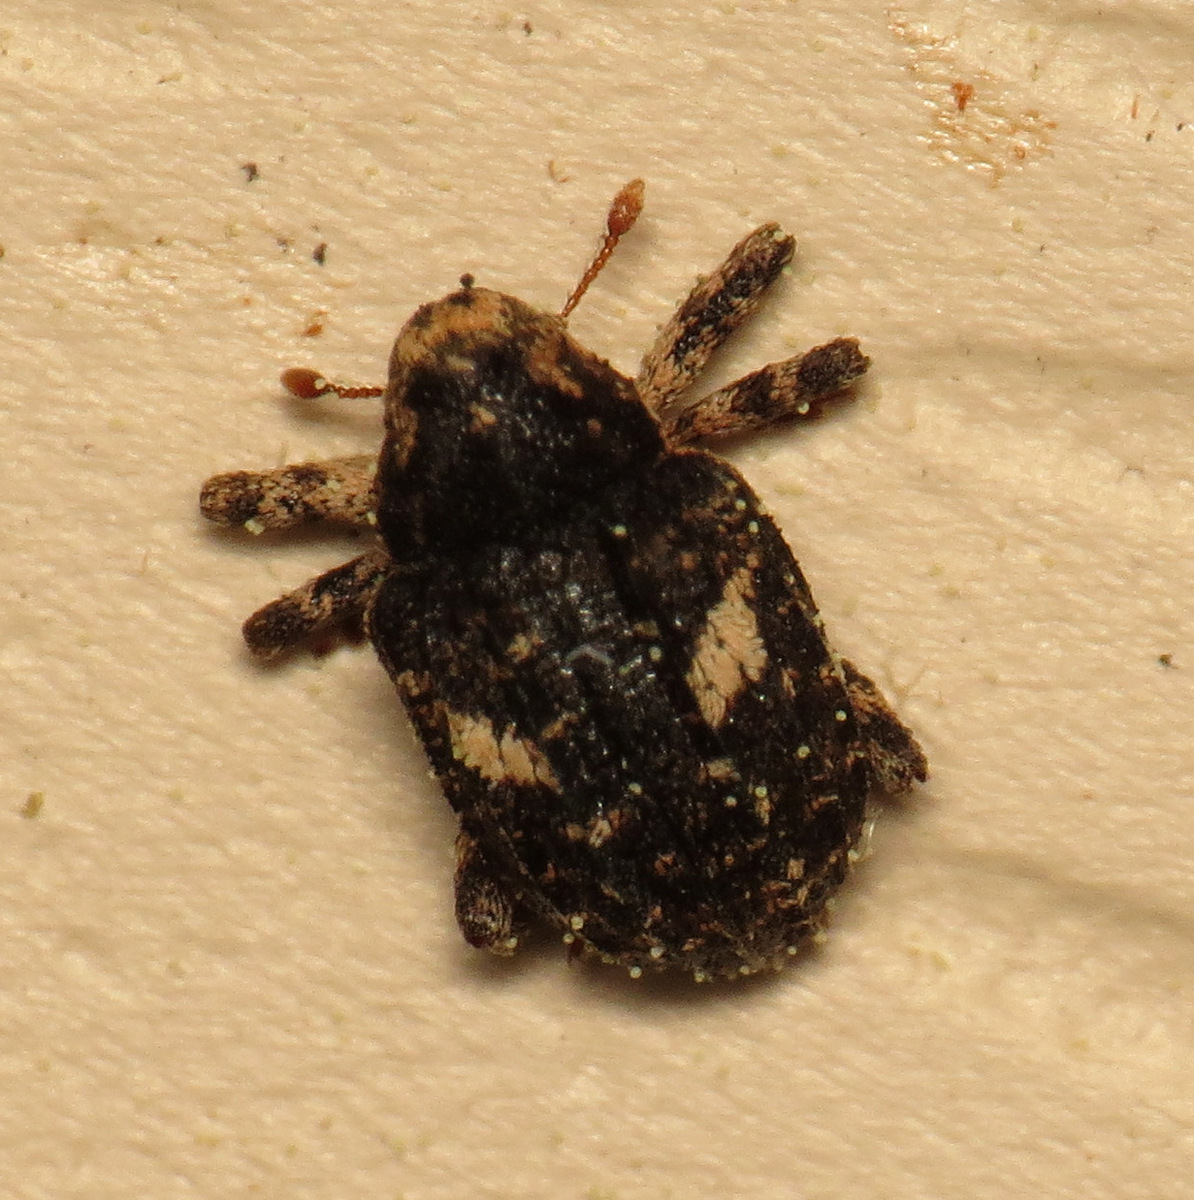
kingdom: Animalia
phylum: Arthropoda
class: Insecta
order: Coleoptera
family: Curculionidae
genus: Eubulus
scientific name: Eubulus bisignatus
